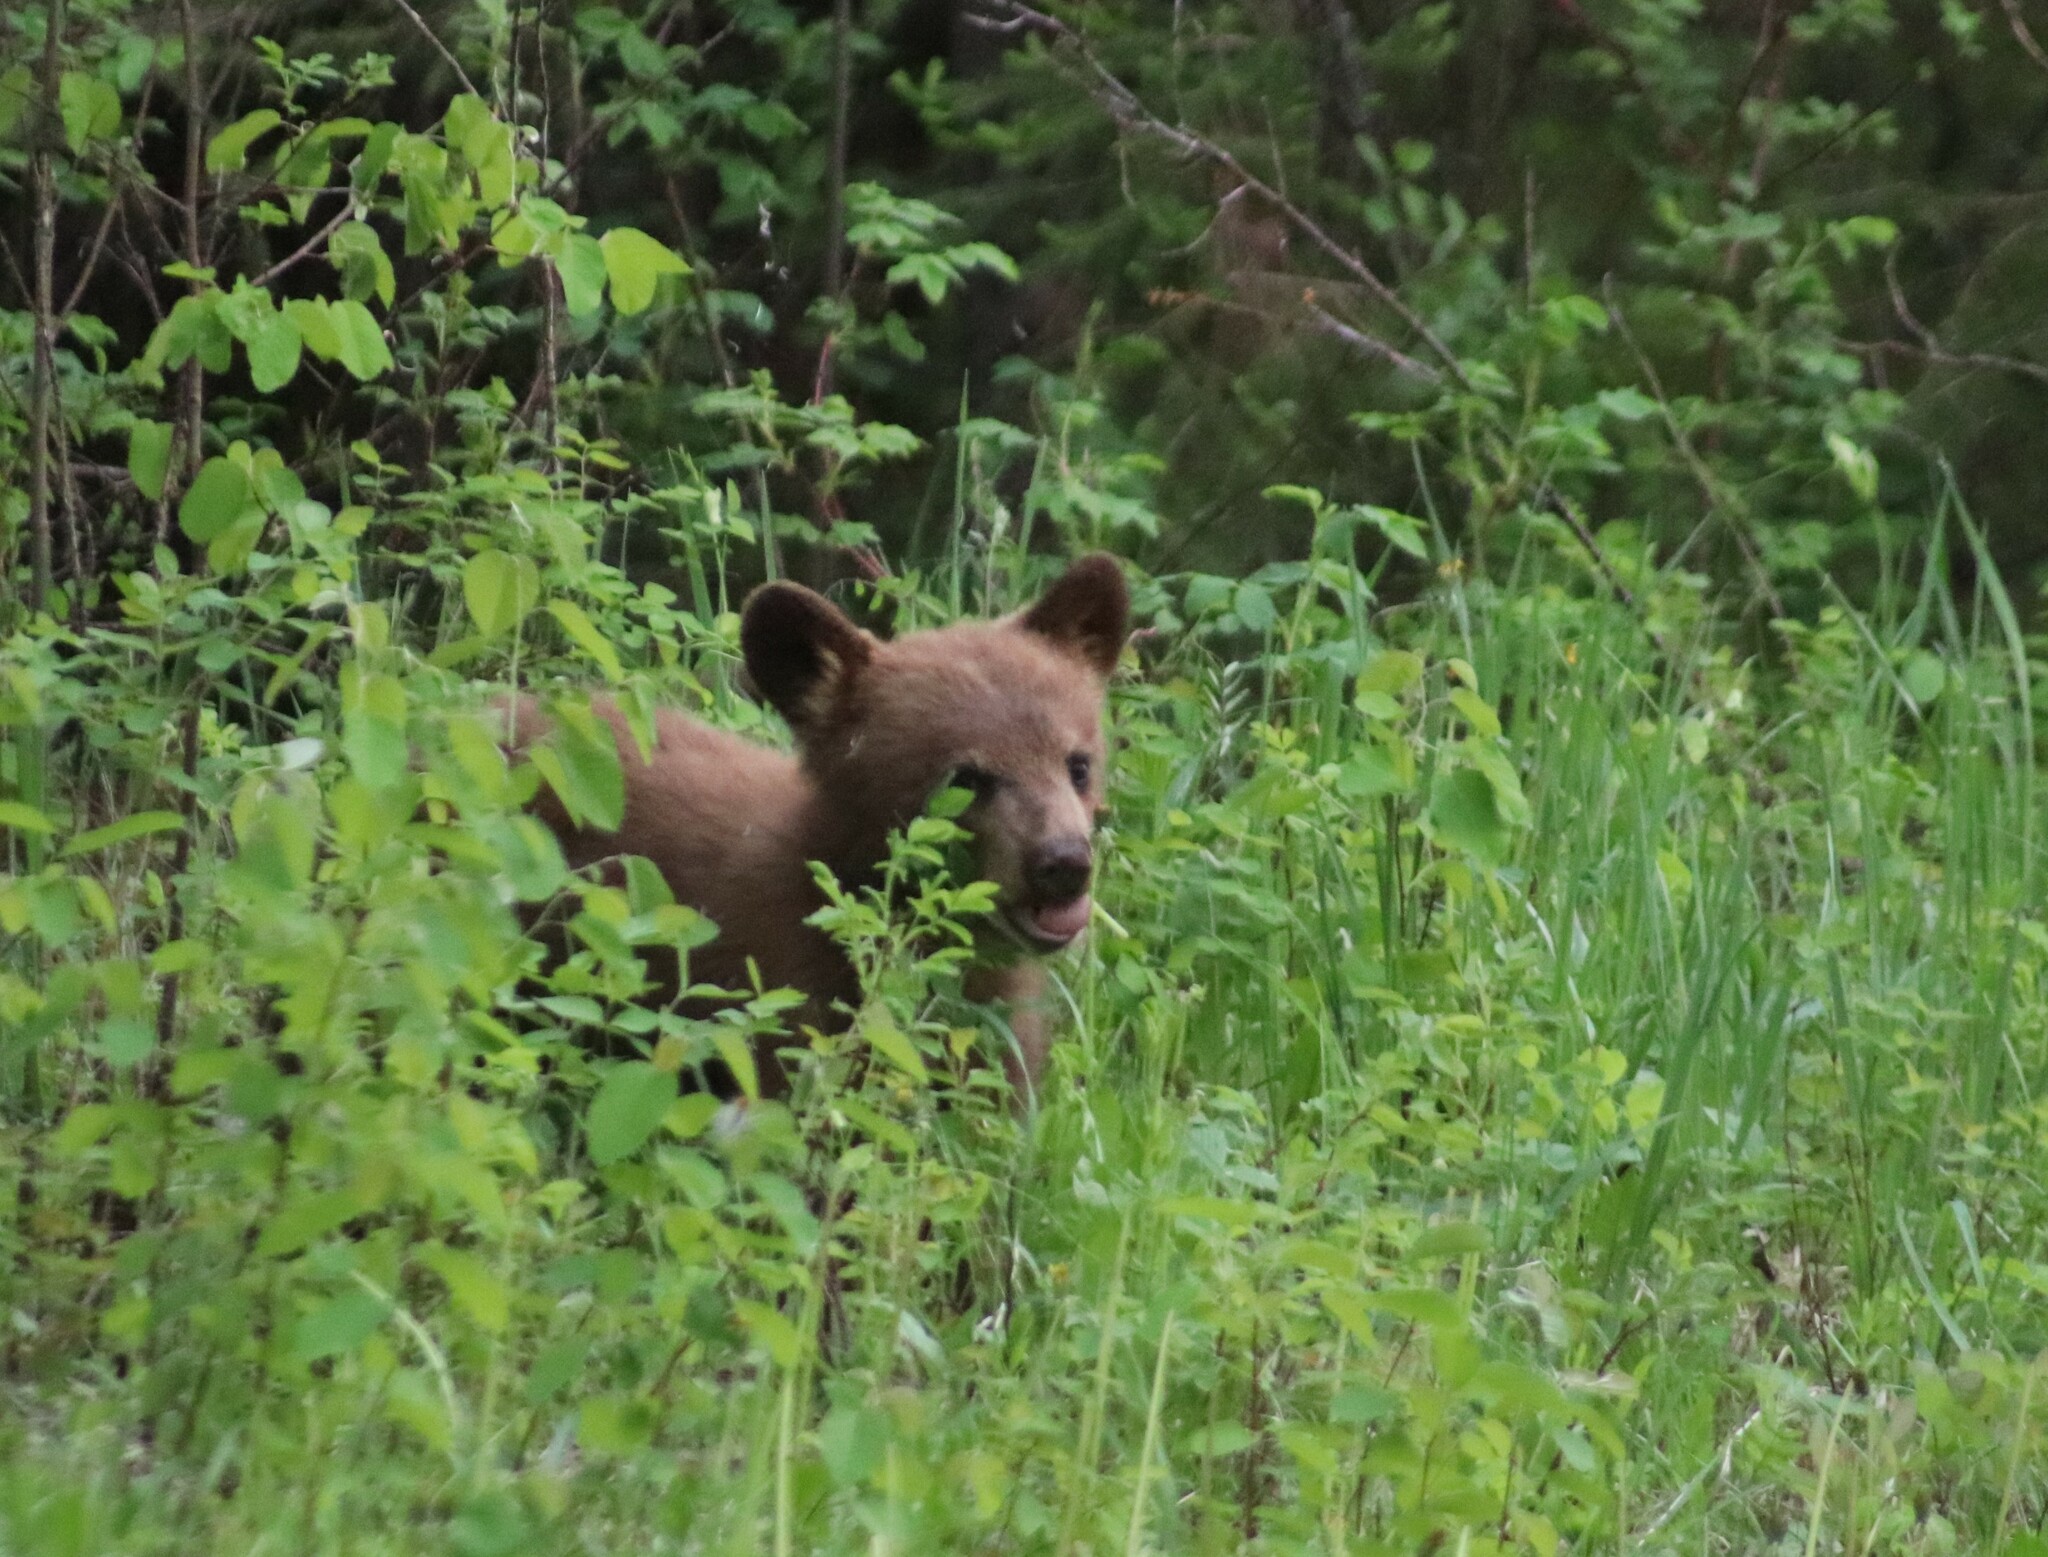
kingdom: Animalia
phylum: Chordata
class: Mammalia
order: Carnivora
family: Ursidae
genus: Ursus
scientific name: Ursus americanus
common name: American black bear
